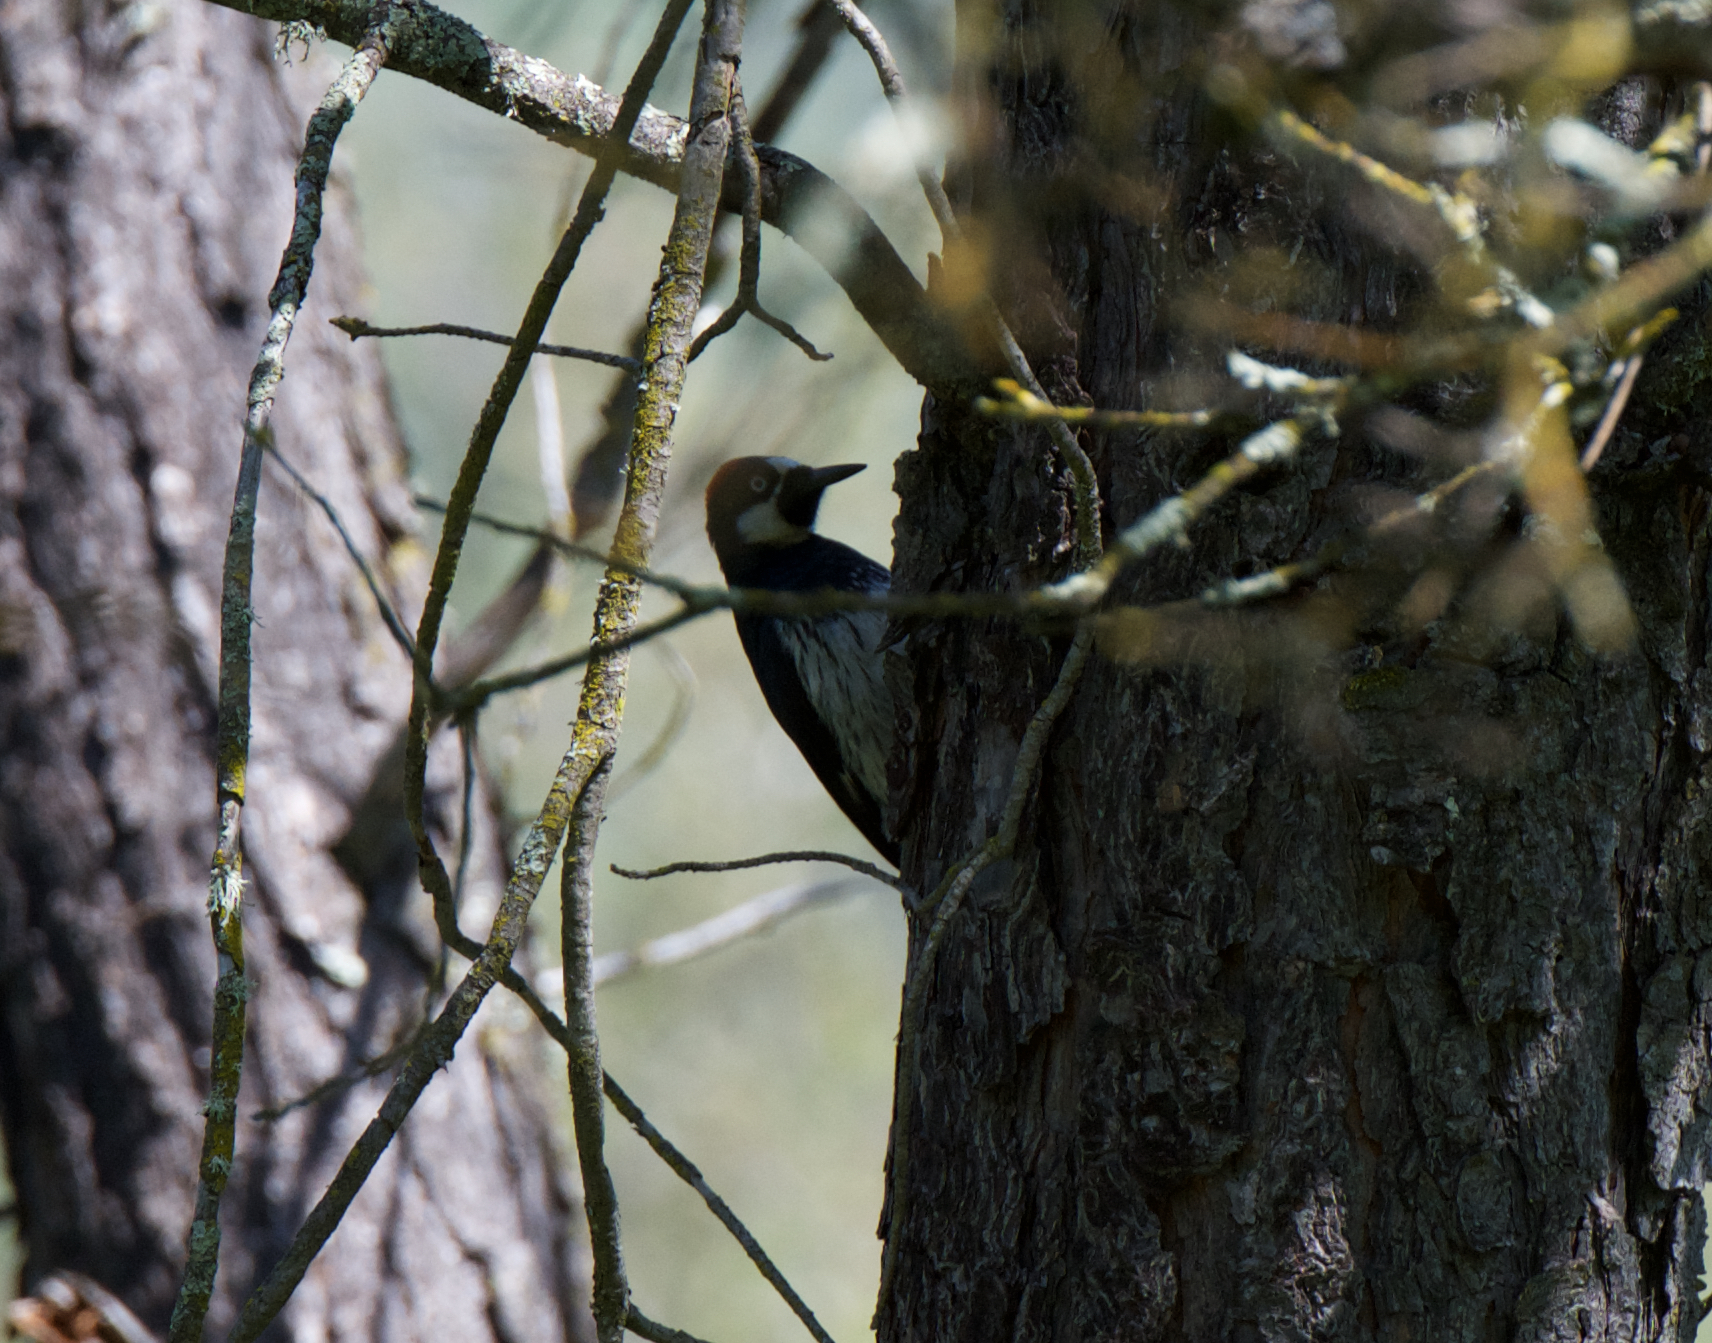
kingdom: Animalia
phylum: Chordata
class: Aves
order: Piciformes
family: Picidae
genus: Melanerpes
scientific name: Melanerpes formicivorus
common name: Acorn woodpecker
